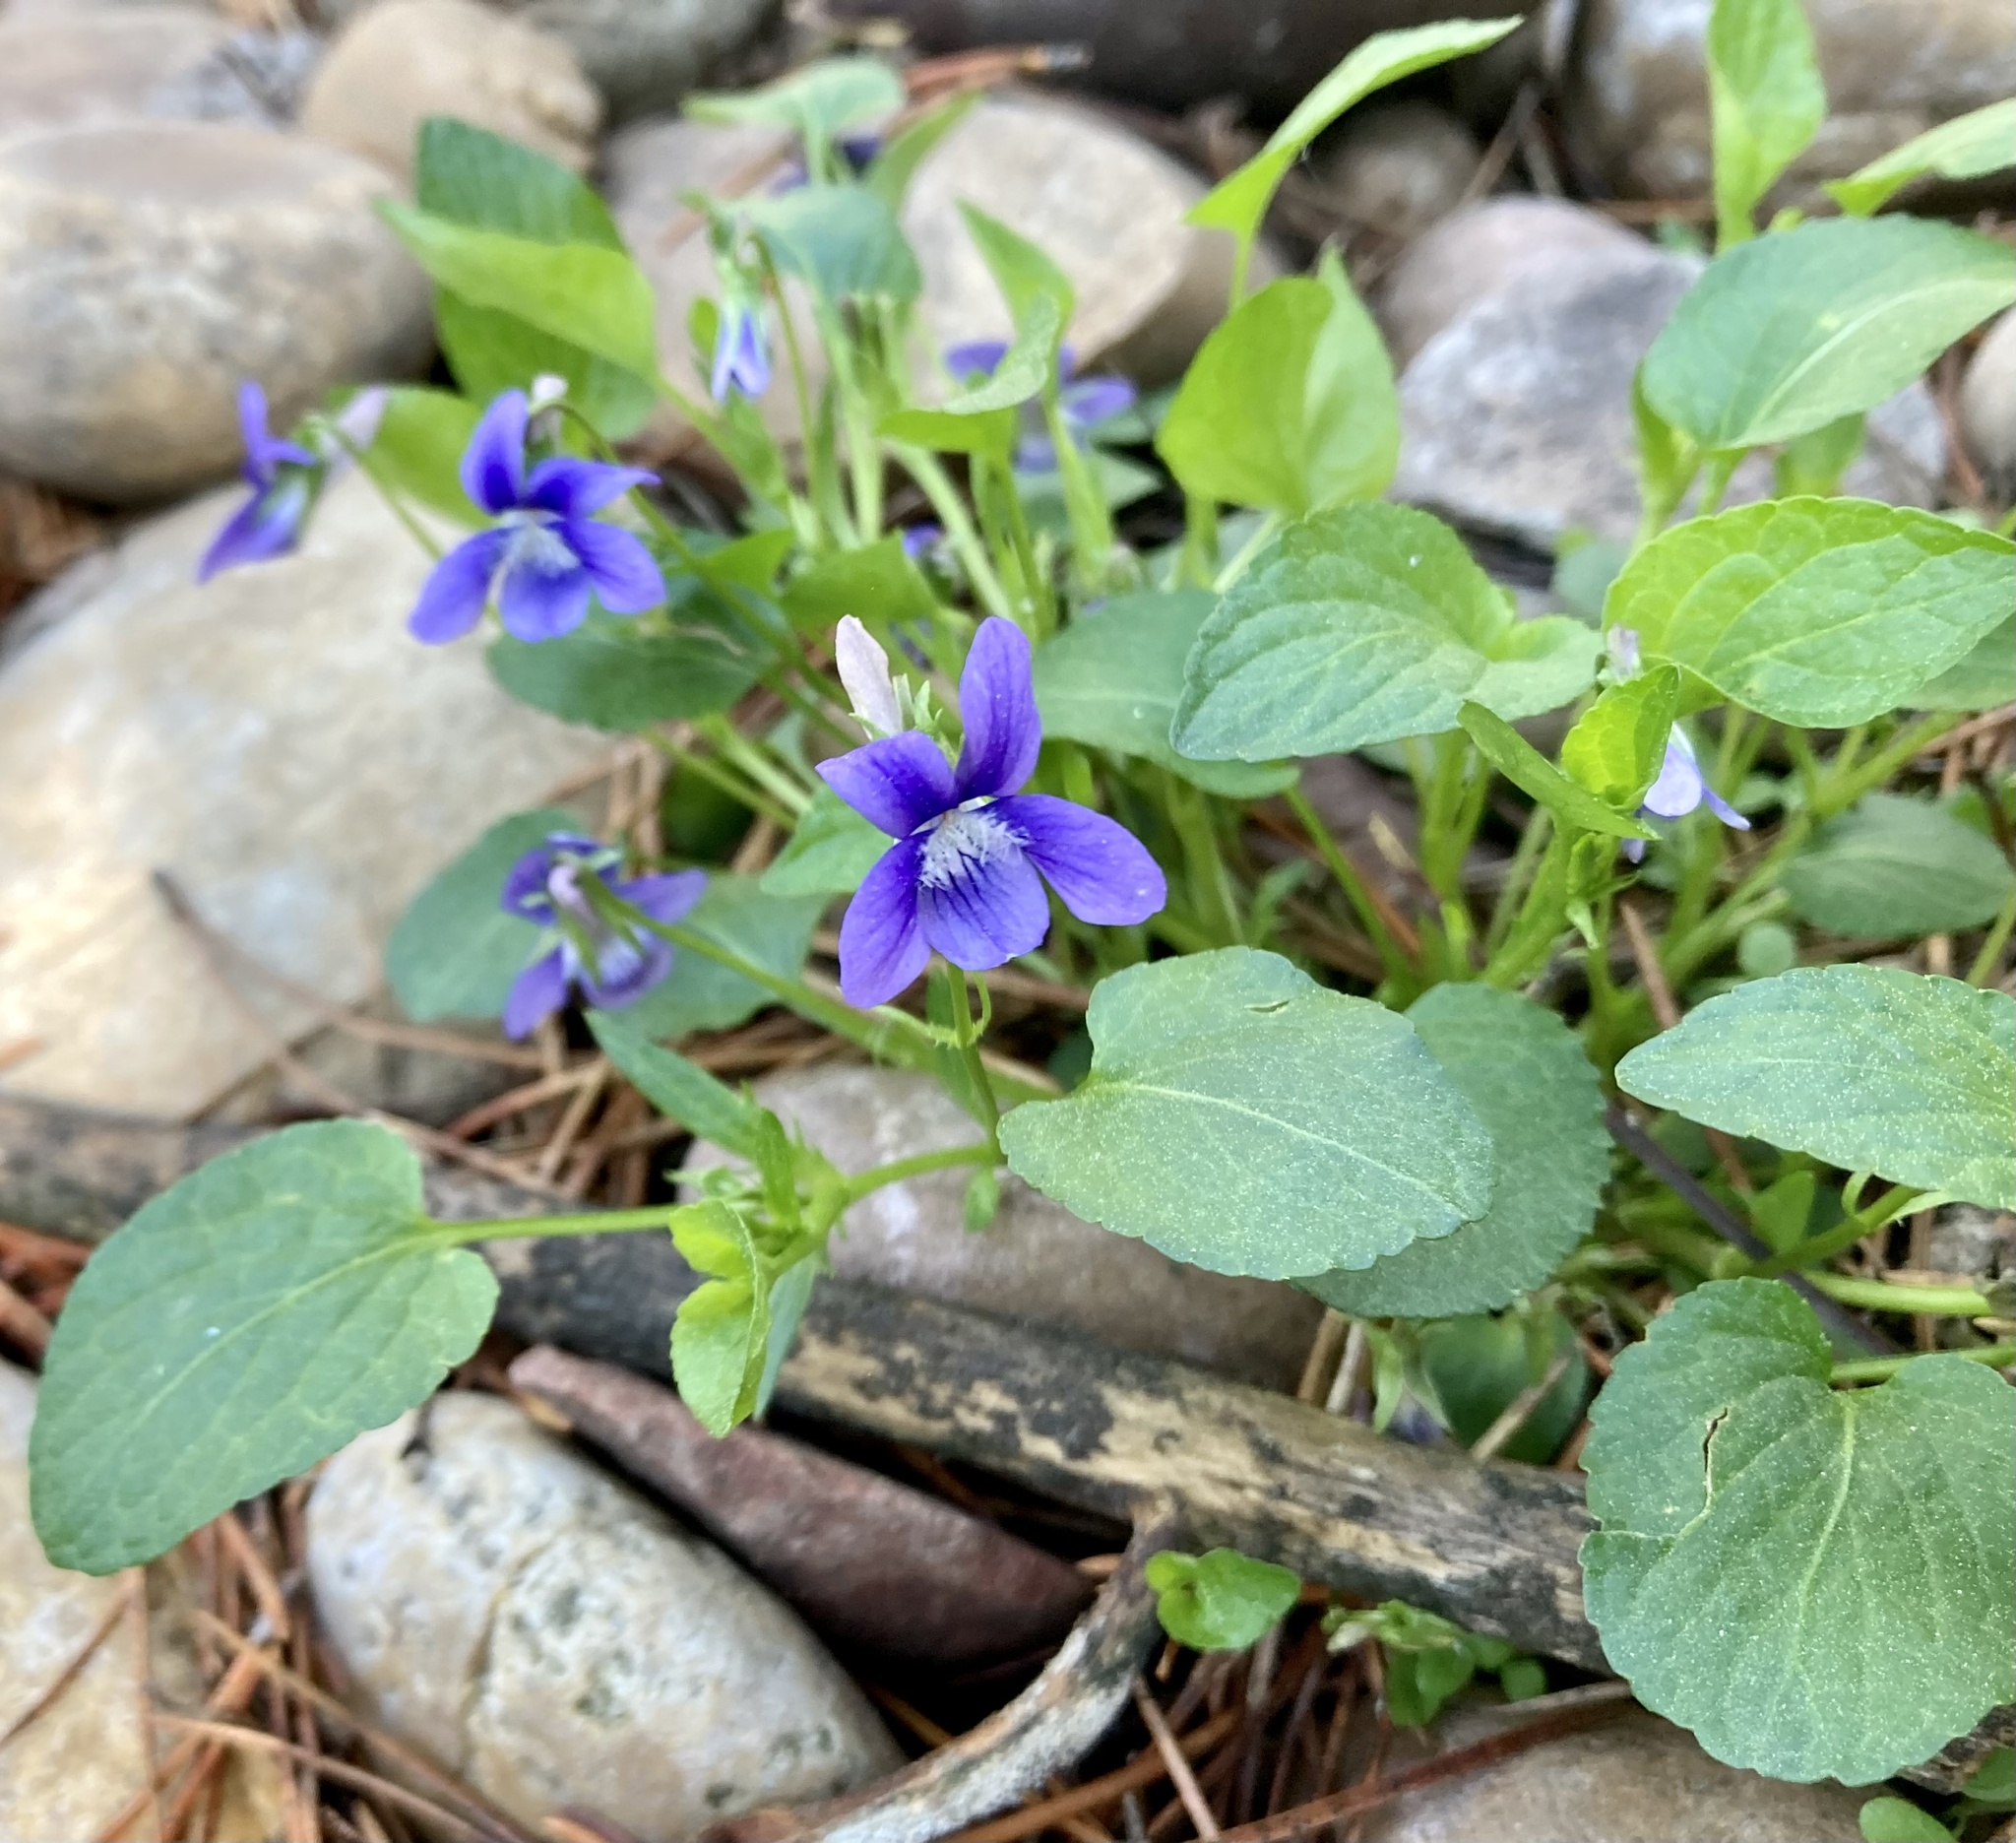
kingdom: Plantae
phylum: Tracheophyta
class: Magnoliopsida
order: Malpighiales
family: Violaceae
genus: Viola
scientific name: Viola adunca
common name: Sand violet
